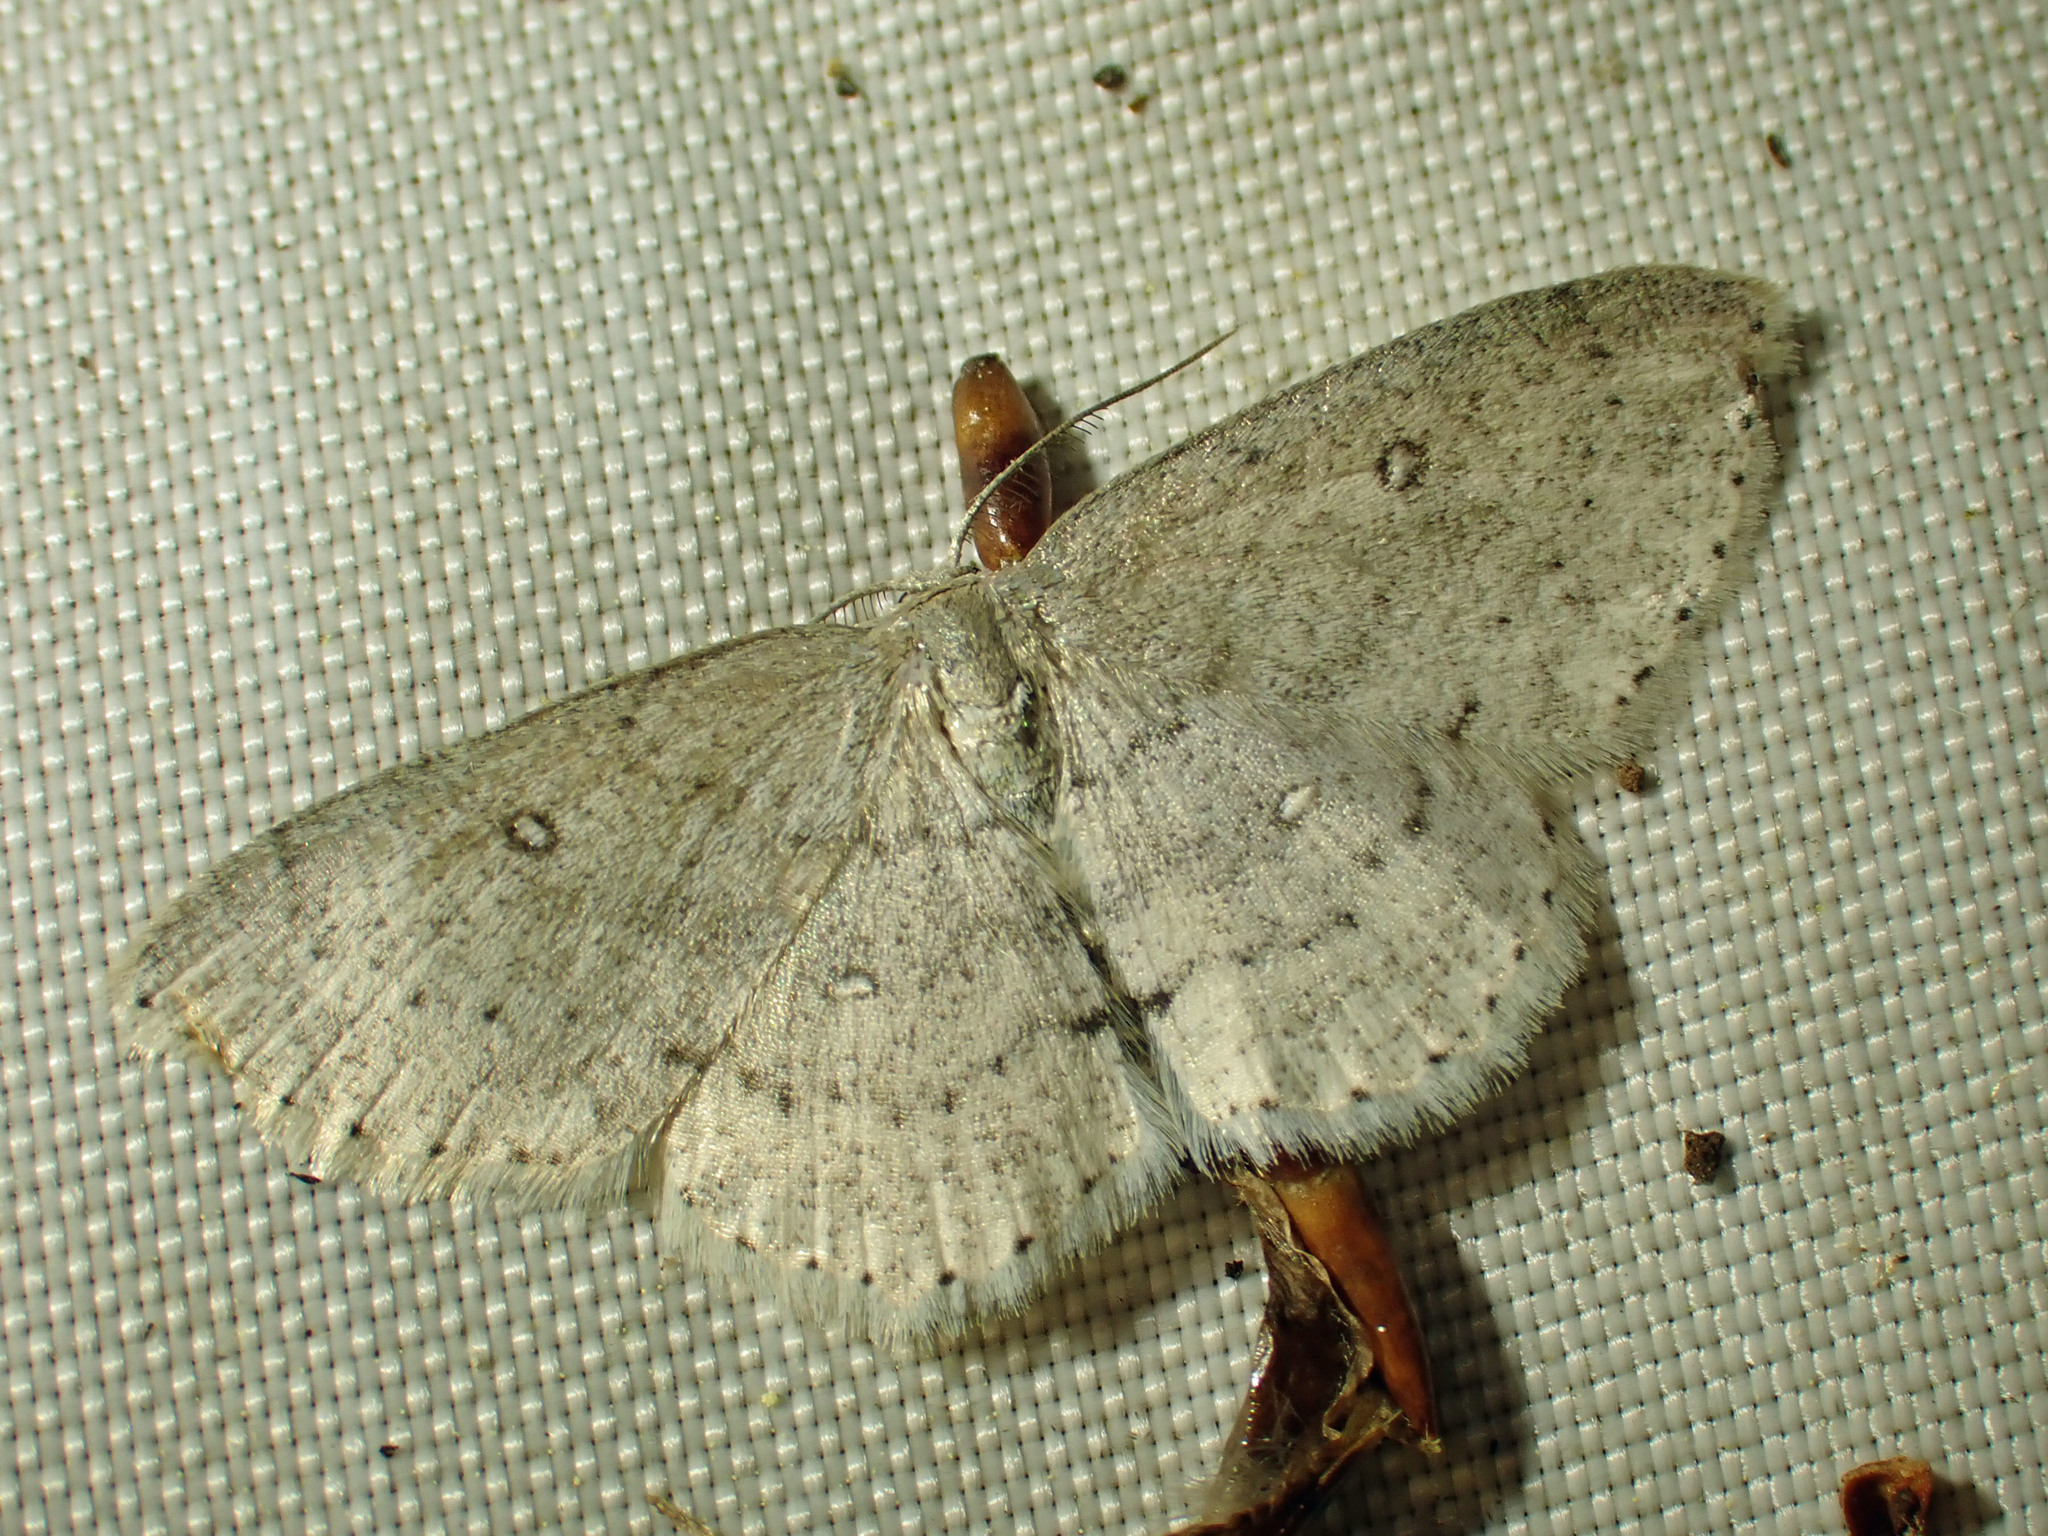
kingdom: Animalia
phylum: Arthropoda
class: Insecta
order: Lepidoptera
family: Geometridae
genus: Cyclophora
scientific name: Cyclophora pendulinaria
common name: Sweet fern geometer
